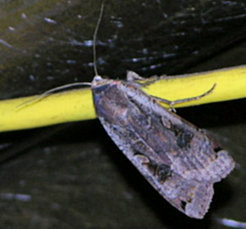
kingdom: Animalia
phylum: Arthropoda
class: Insecta
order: Lepidoptera
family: Noctuidae
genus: Noctua
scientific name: Noctua pronuba
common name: Large yellow underwing
